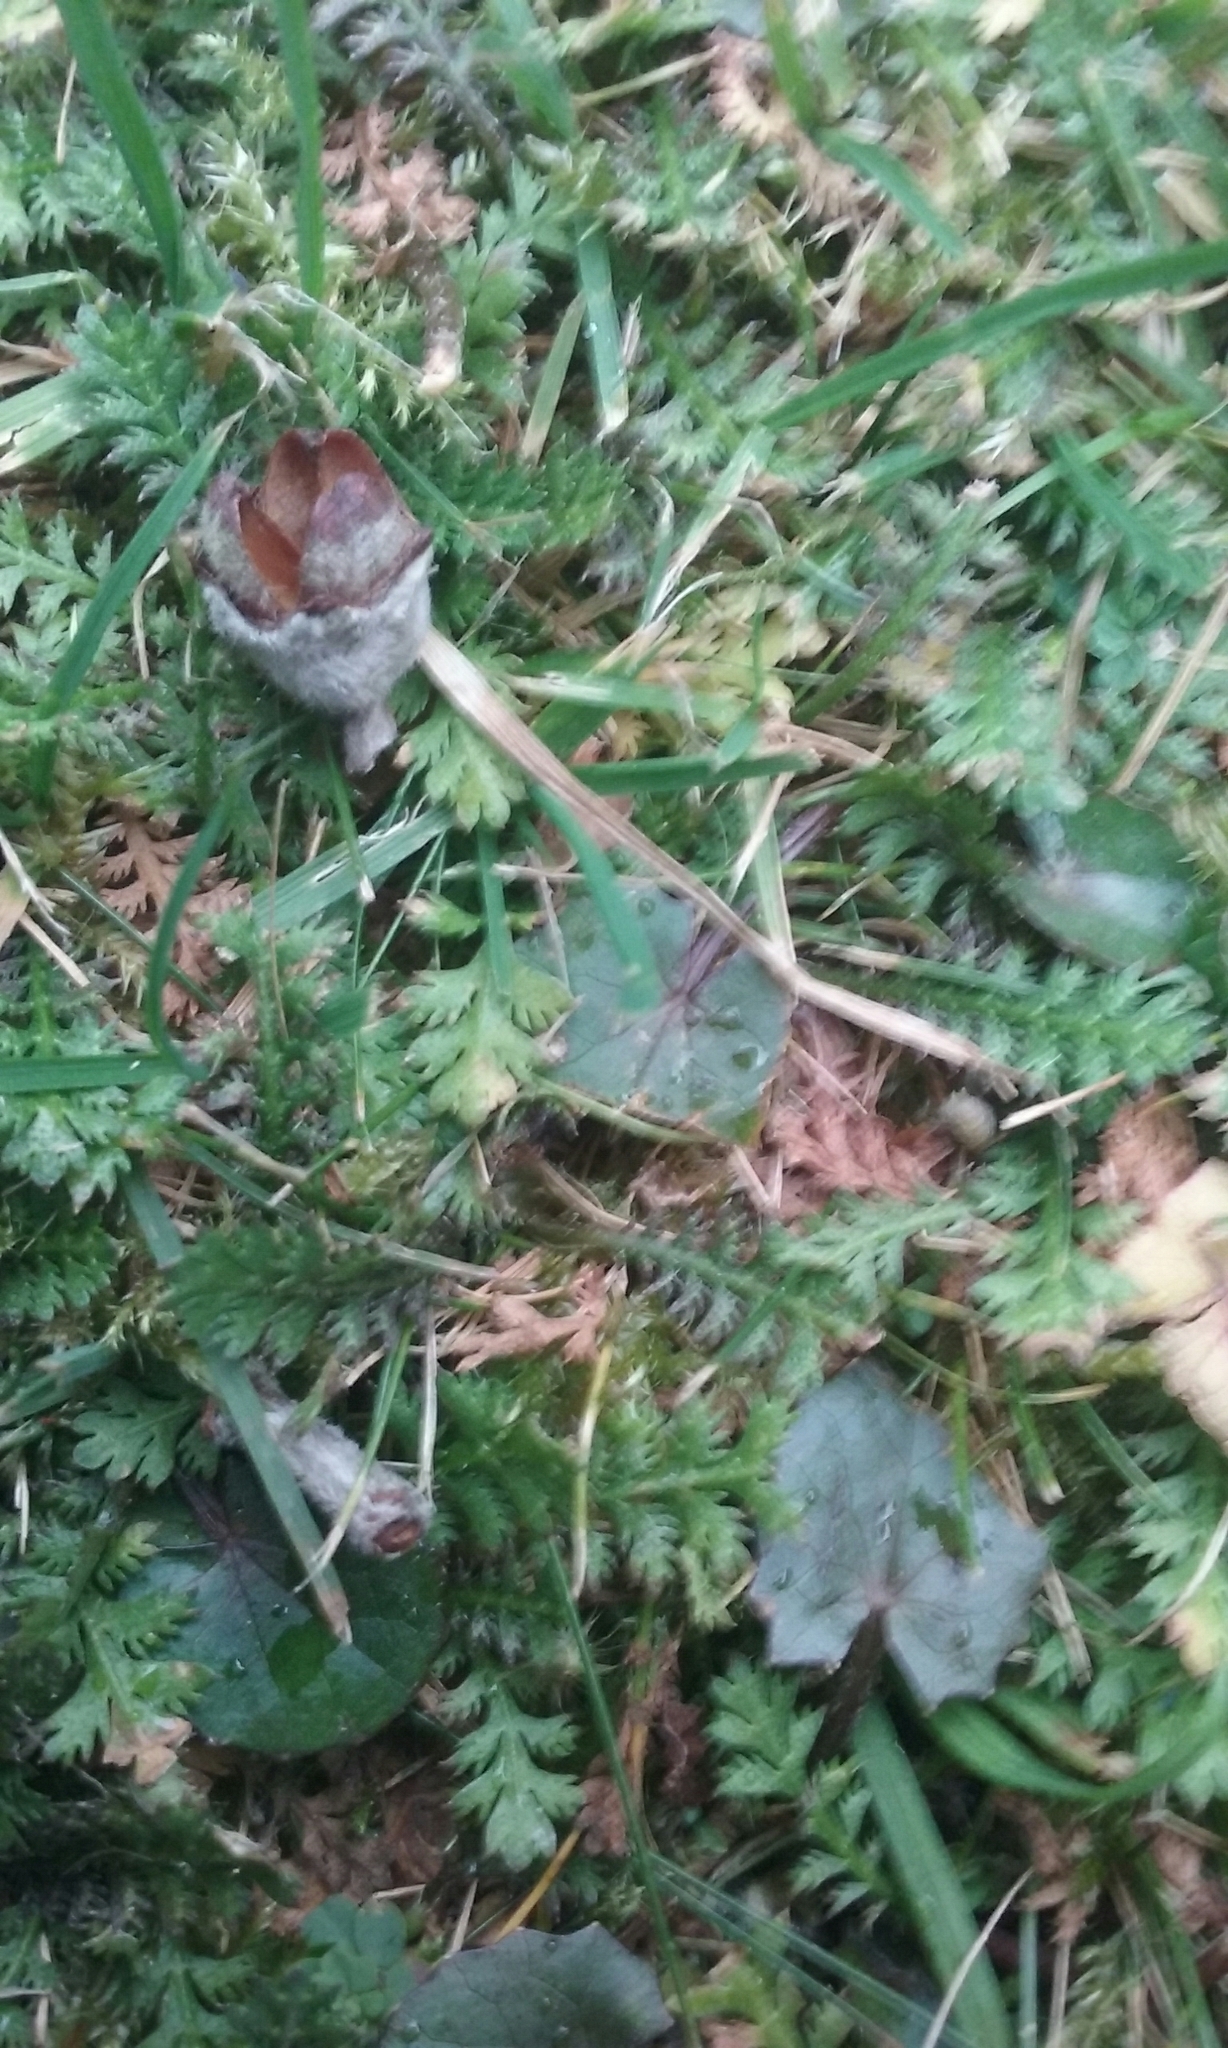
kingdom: Plantae
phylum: Tracheophyta
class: Magnoliopsida
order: Apiales
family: Apiaceae
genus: Centella
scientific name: Centella uniflora
